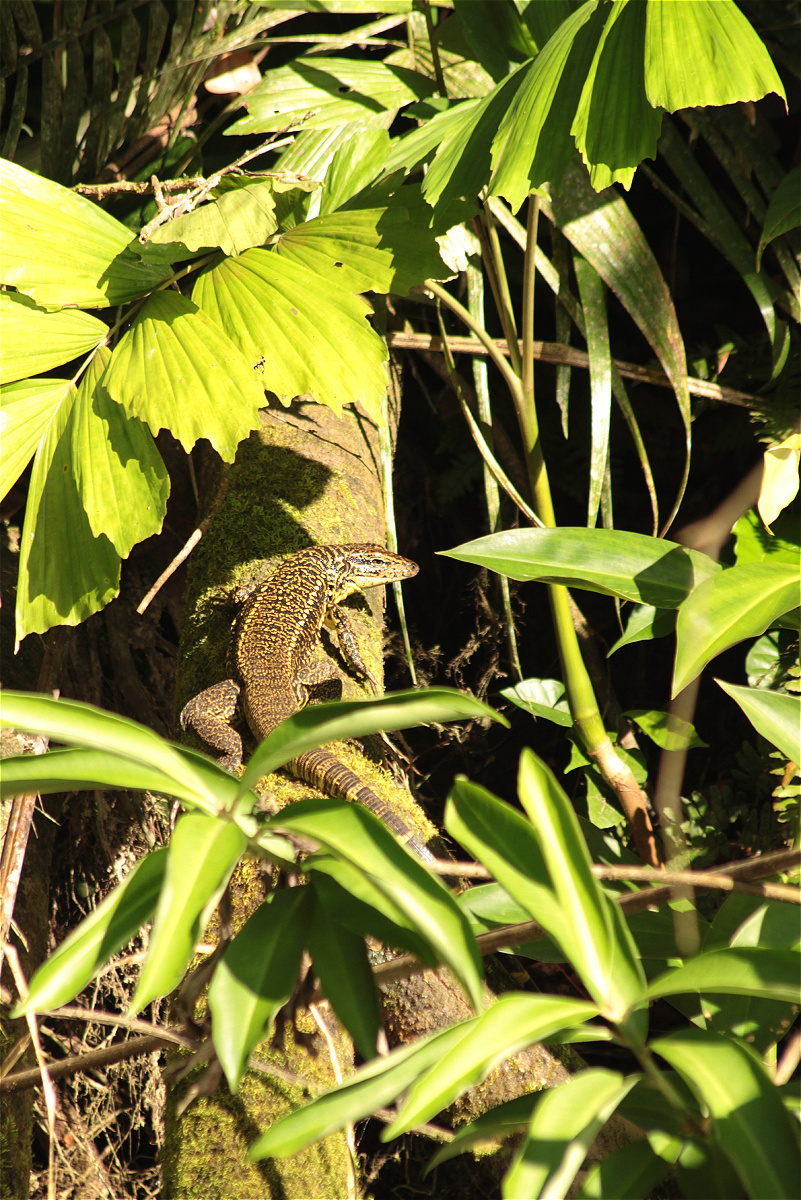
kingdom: Animalia
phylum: Chordata
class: Squamata
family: Teiidae
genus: Tupinambis
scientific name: Tupinambis cuzcoensis
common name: Cusco tegu lizard
